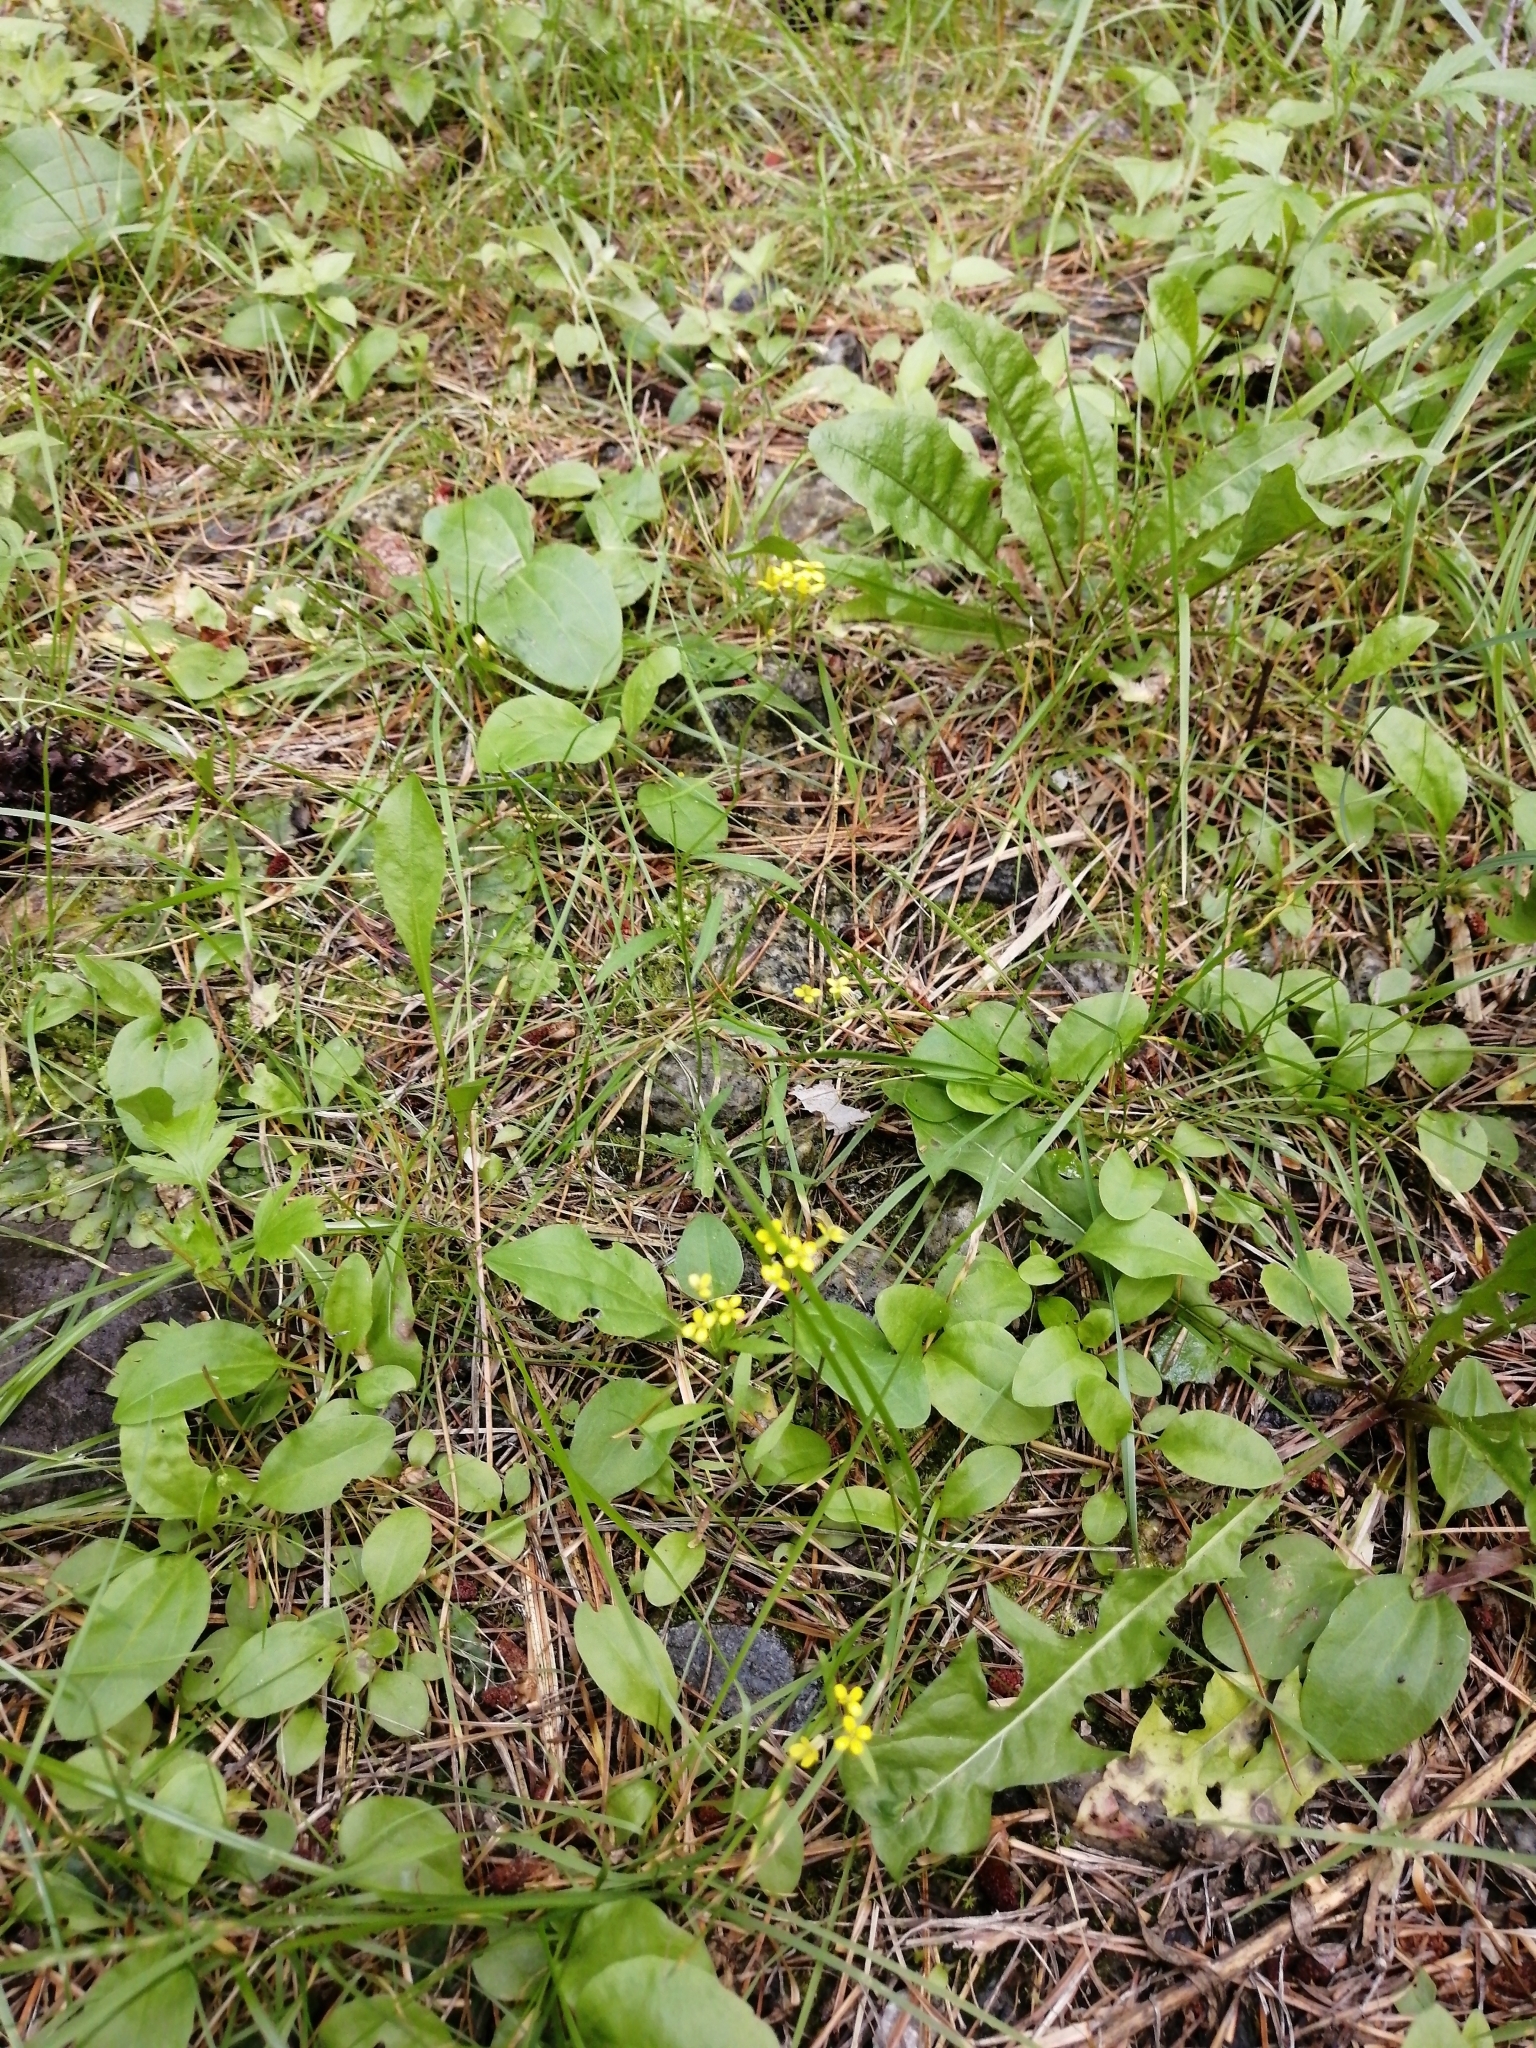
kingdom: Plantae
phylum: Tracheophyta
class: Magnoliopsida
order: Brassicales
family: Brassicaceae
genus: Erysimum
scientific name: Erysimum cheiranthoides
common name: Treacle mustard
